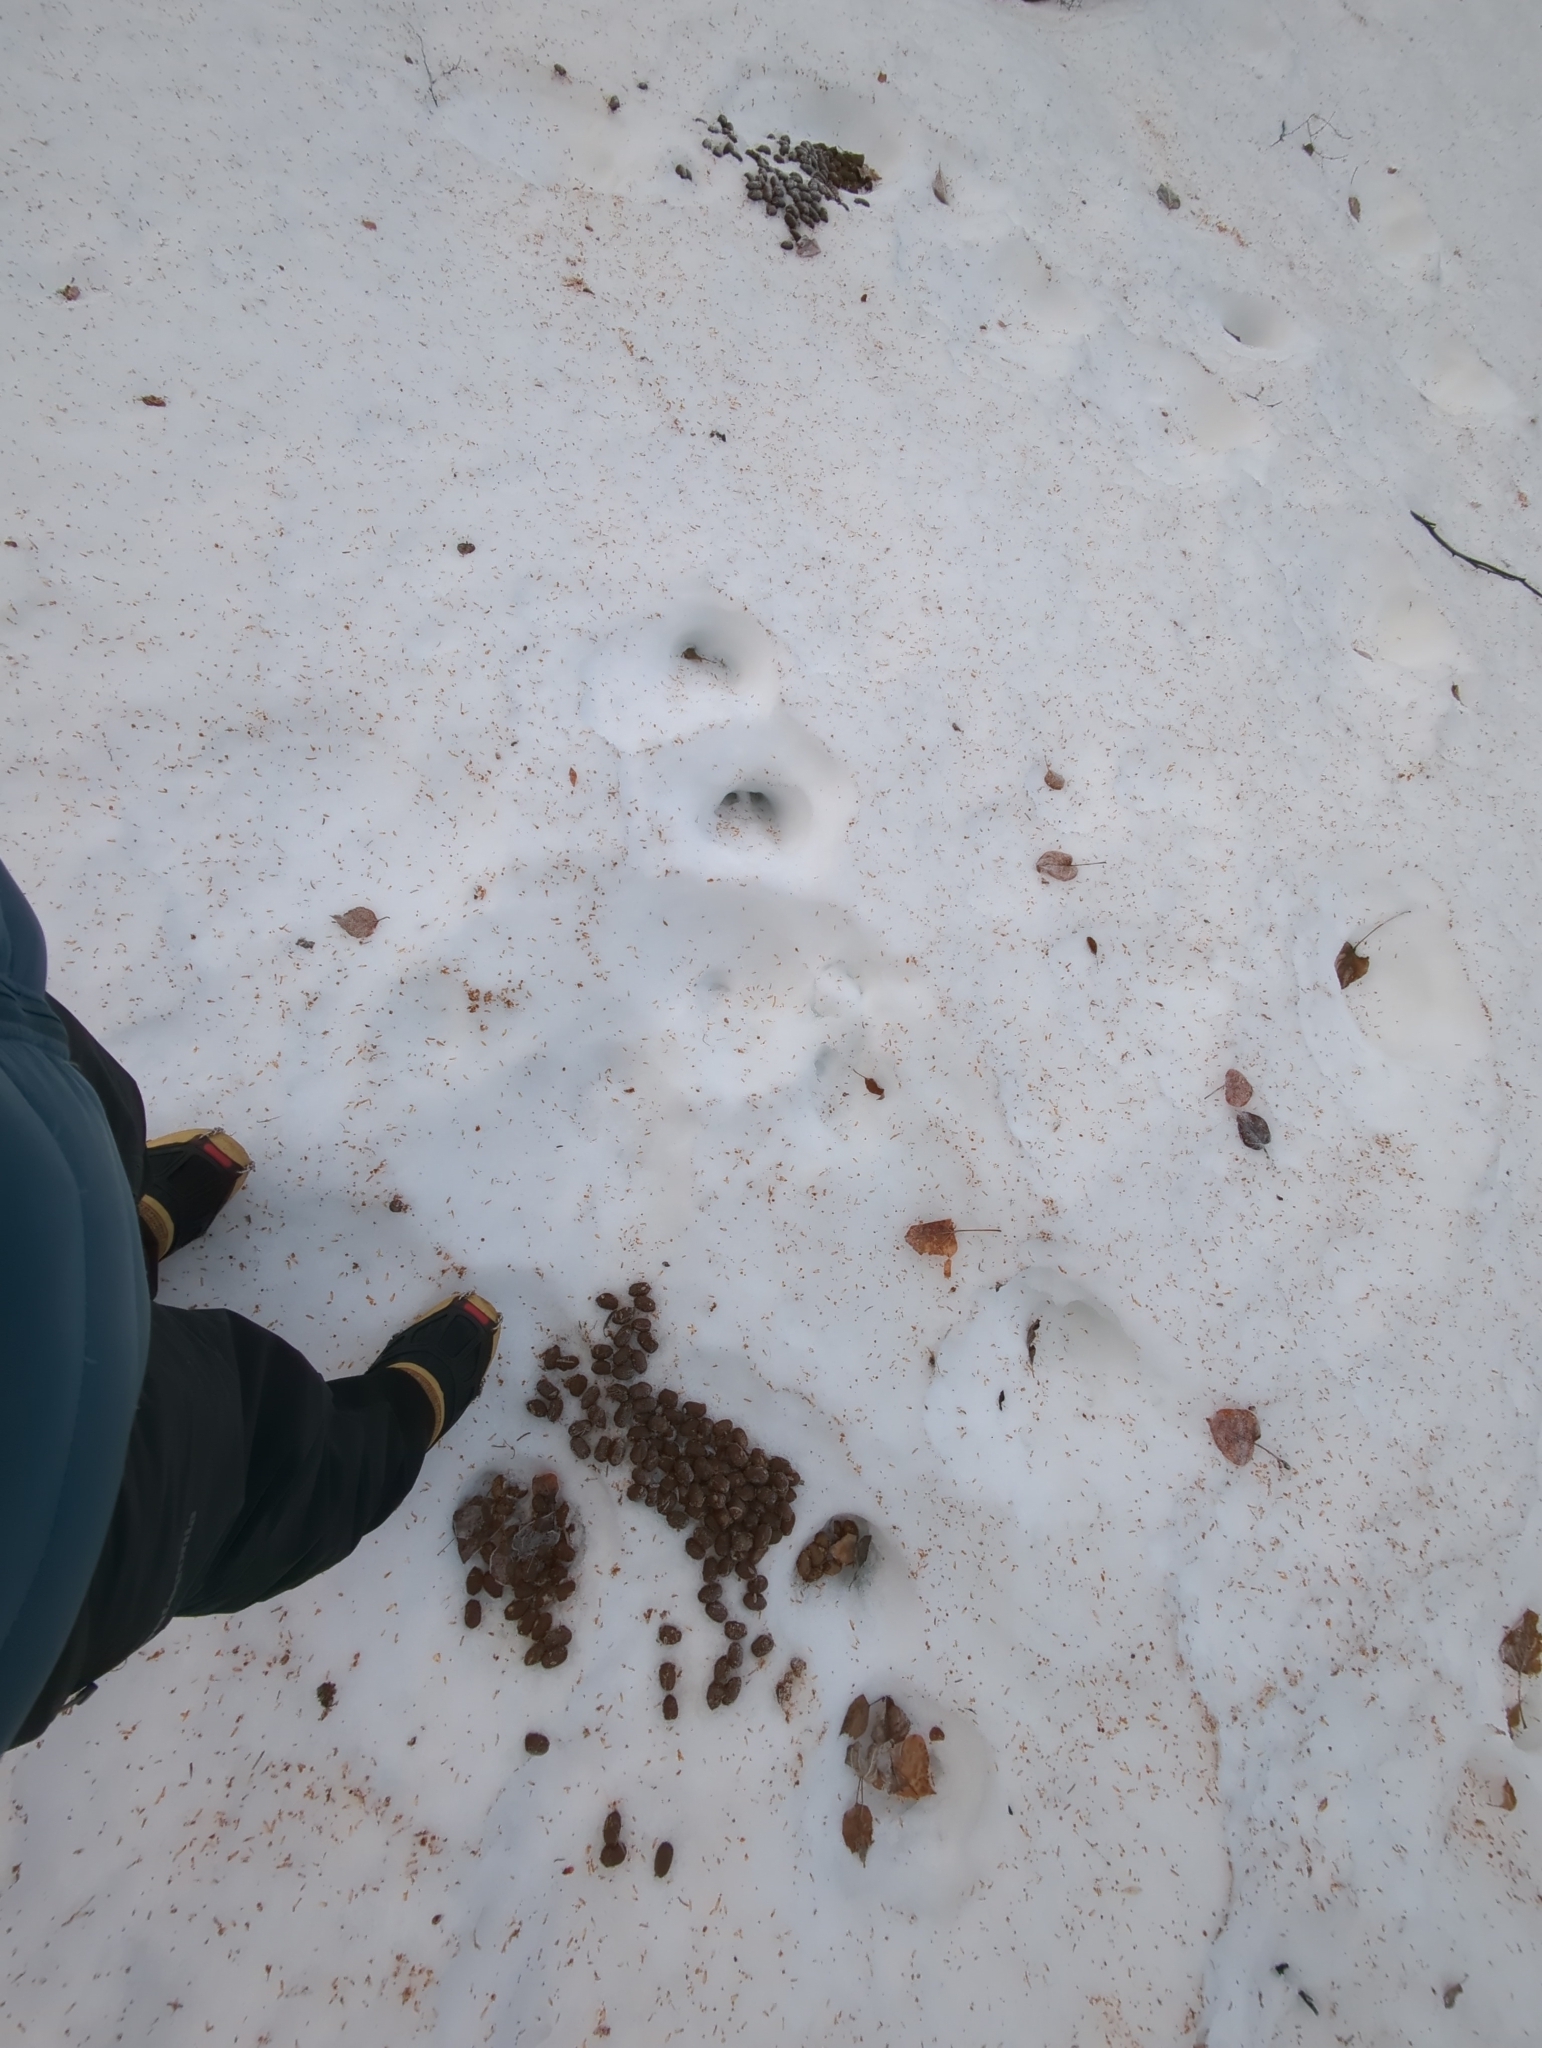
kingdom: Animalia
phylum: Chordata
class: Mammalia
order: Artiodactyla
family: Cervidae
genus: Alces
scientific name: Alces alces
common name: Moose
